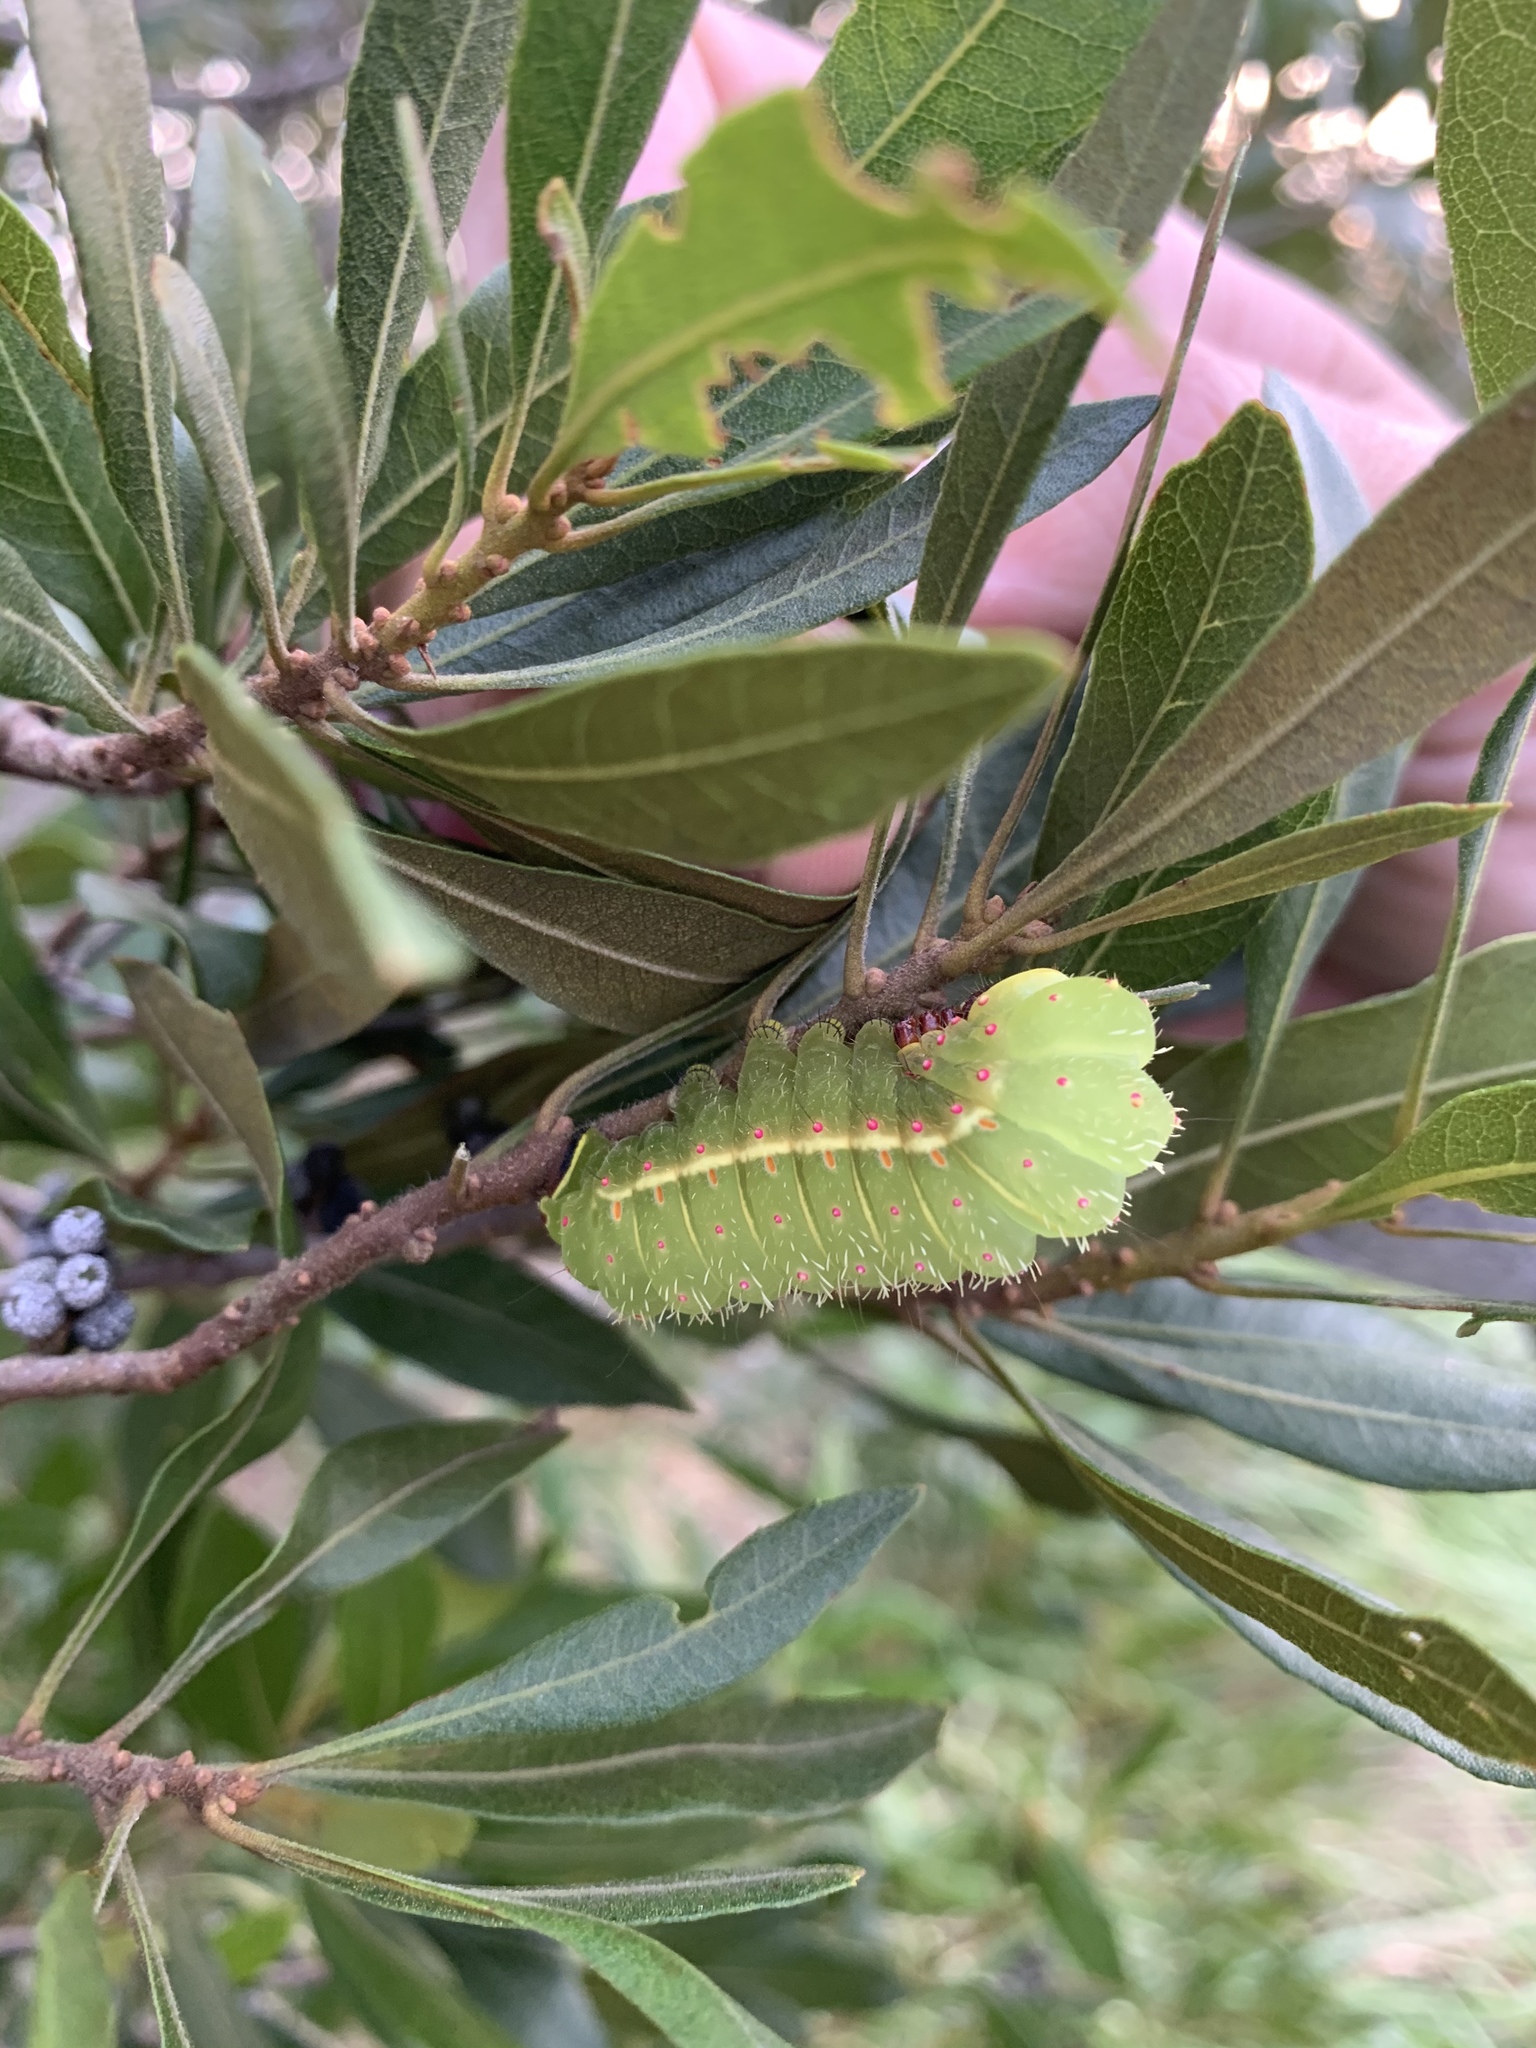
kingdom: Animalia
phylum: Arthropoda
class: Insecta
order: Lepidoptera
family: Saturniidae
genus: Actias
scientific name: Actias luna
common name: Luna moth
